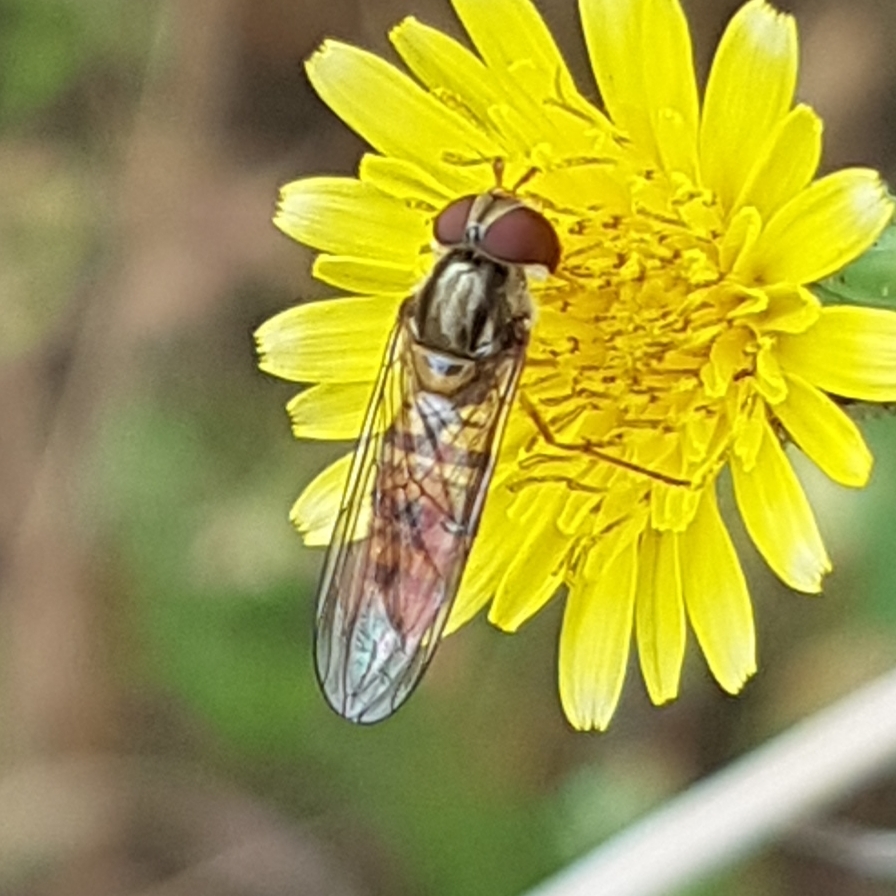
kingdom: Animalia
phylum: Arthropoda
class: Insecta
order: Diptera
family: Syrphidae
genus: Episyrphus
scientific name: Episyrphus balteatus
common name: Marmalade hoverfly
